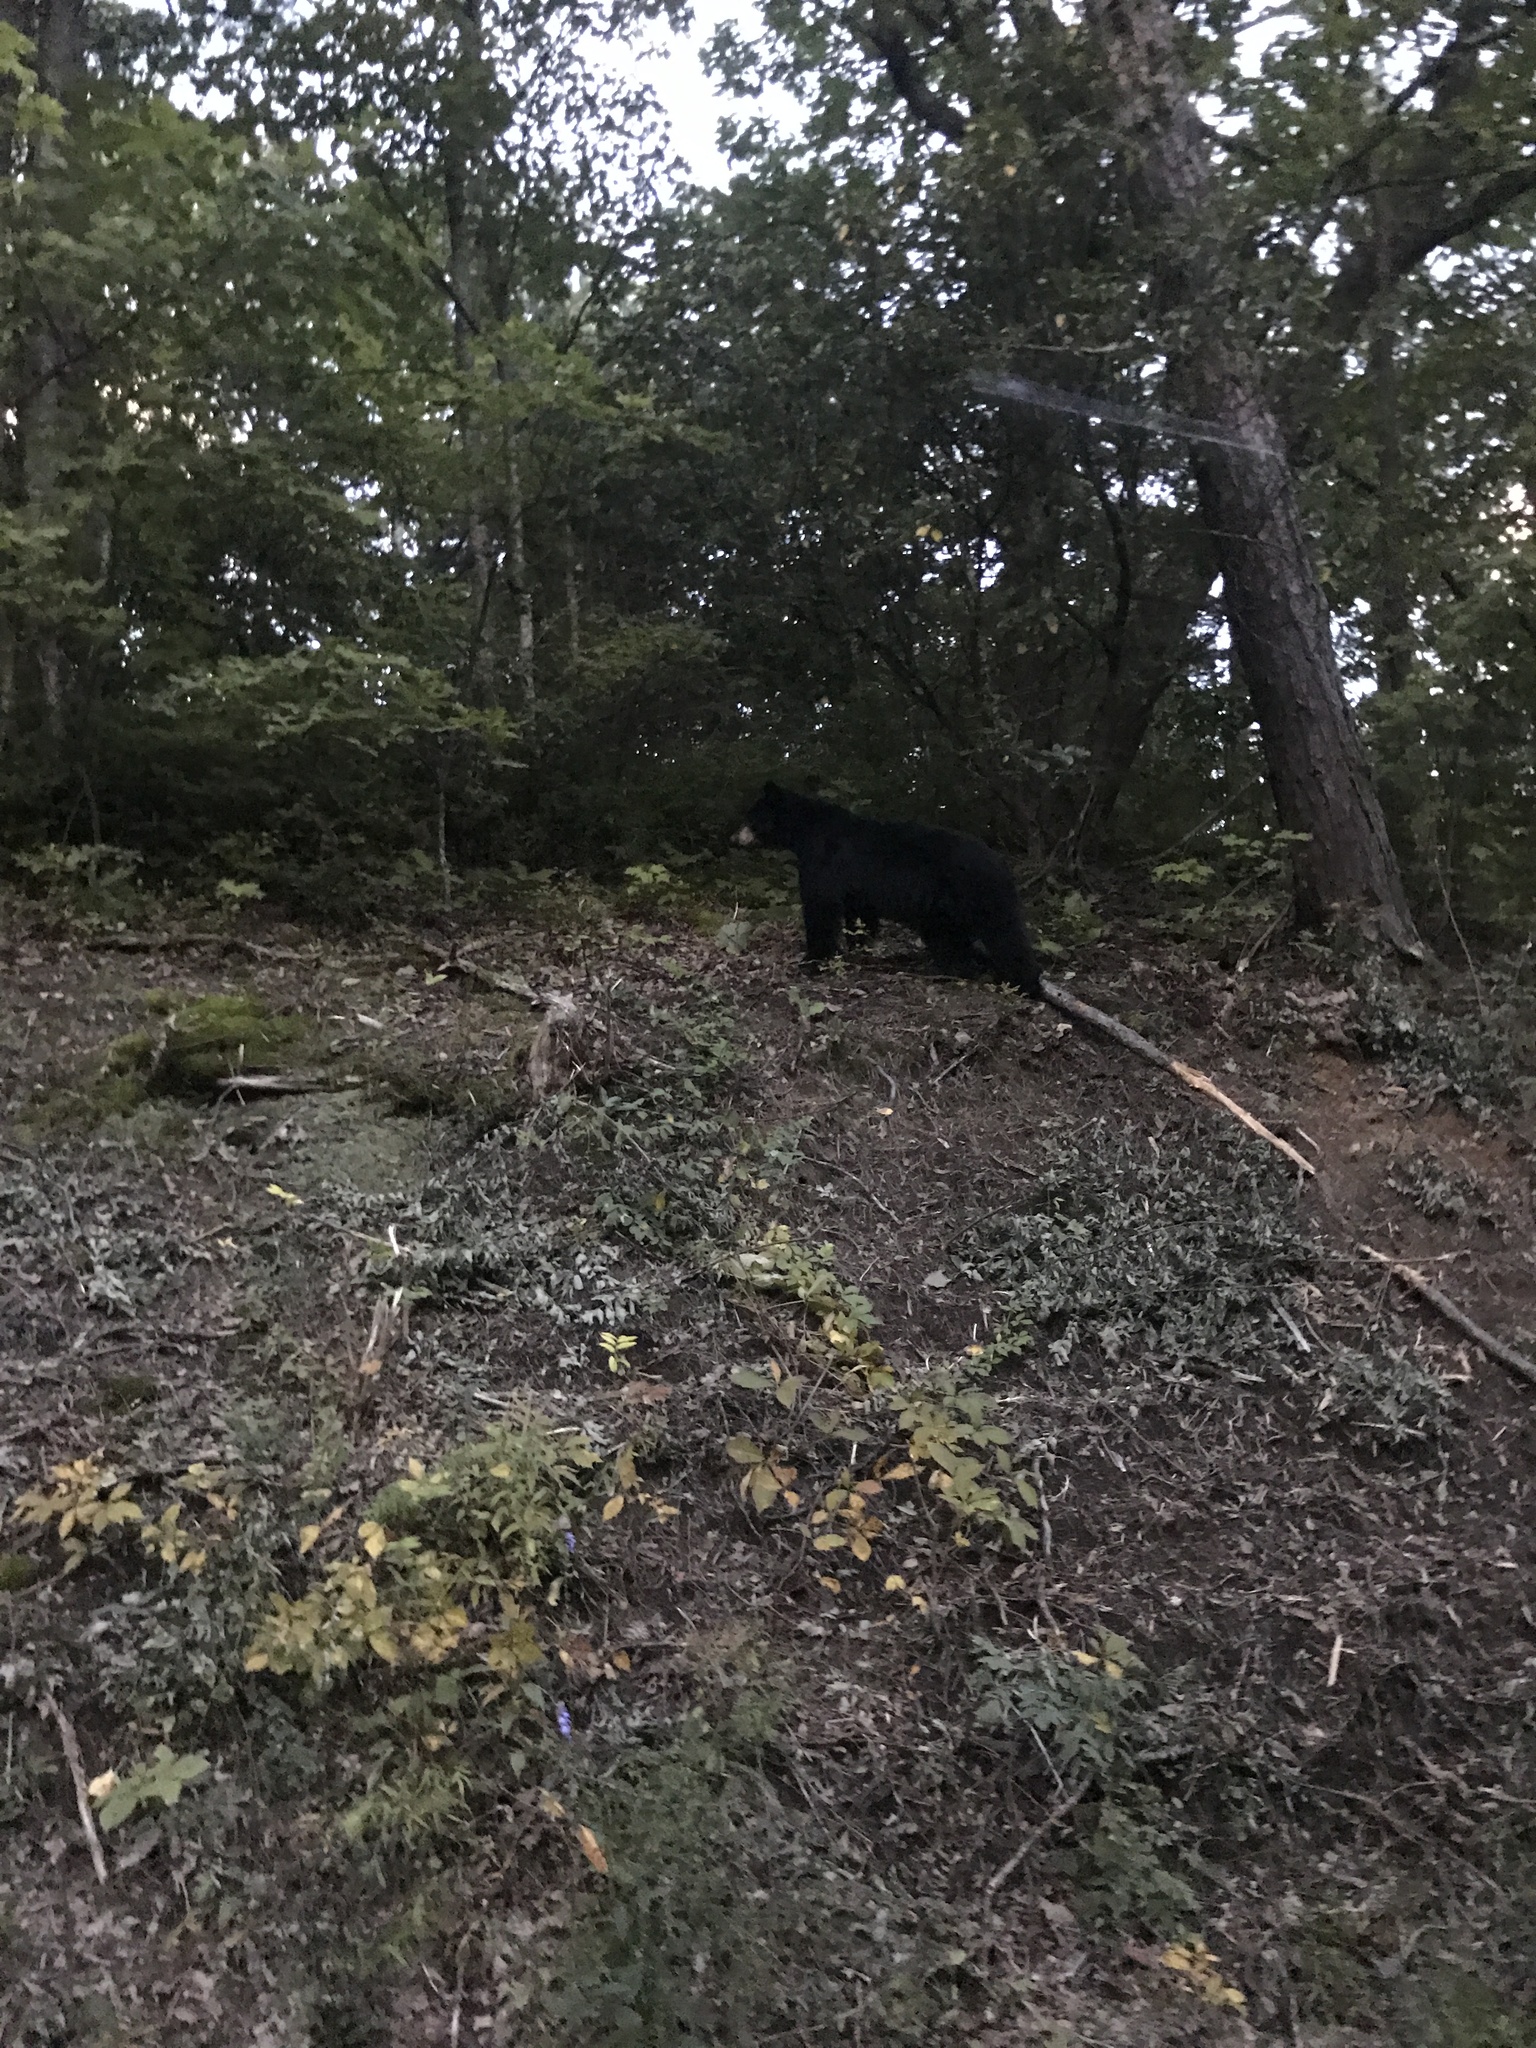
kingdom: Animalia
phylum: Chordata
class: Mammalia
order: Carnivora
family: Ursidae
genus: Ursus
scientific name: Ursus americanus
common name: American black bear
